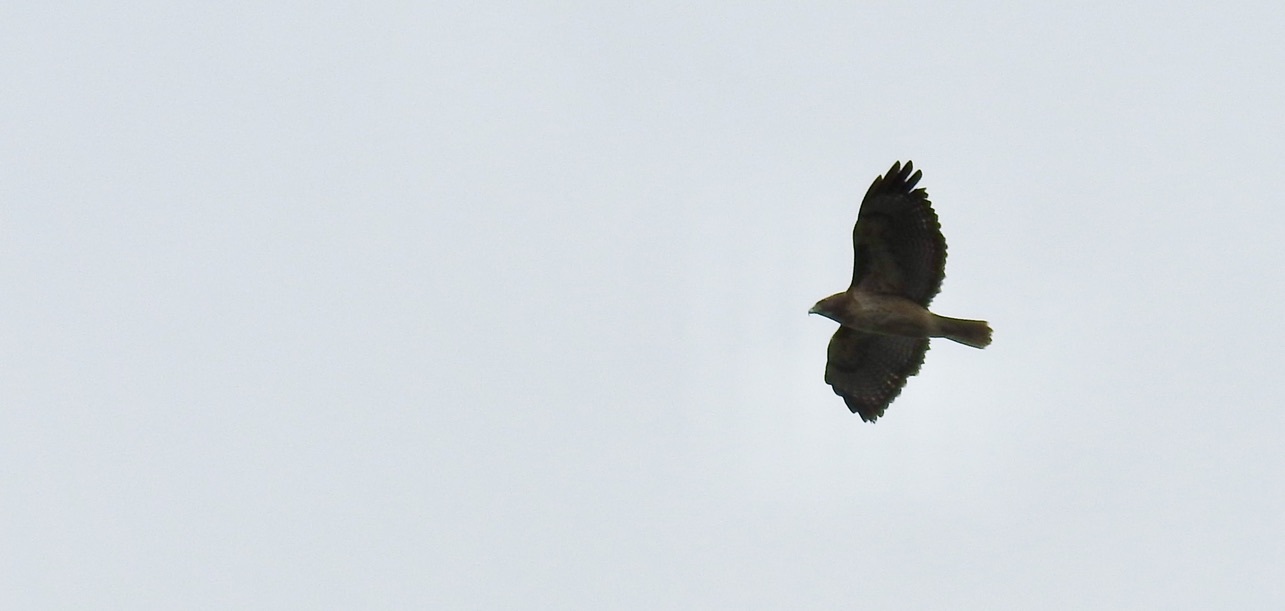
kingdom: Animalia
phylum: Chordata
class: Aves
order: Accipitriformes
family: Accipitridae
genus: Buteo
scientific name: Buteo jamaicensis
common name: Red-tailed hawk
